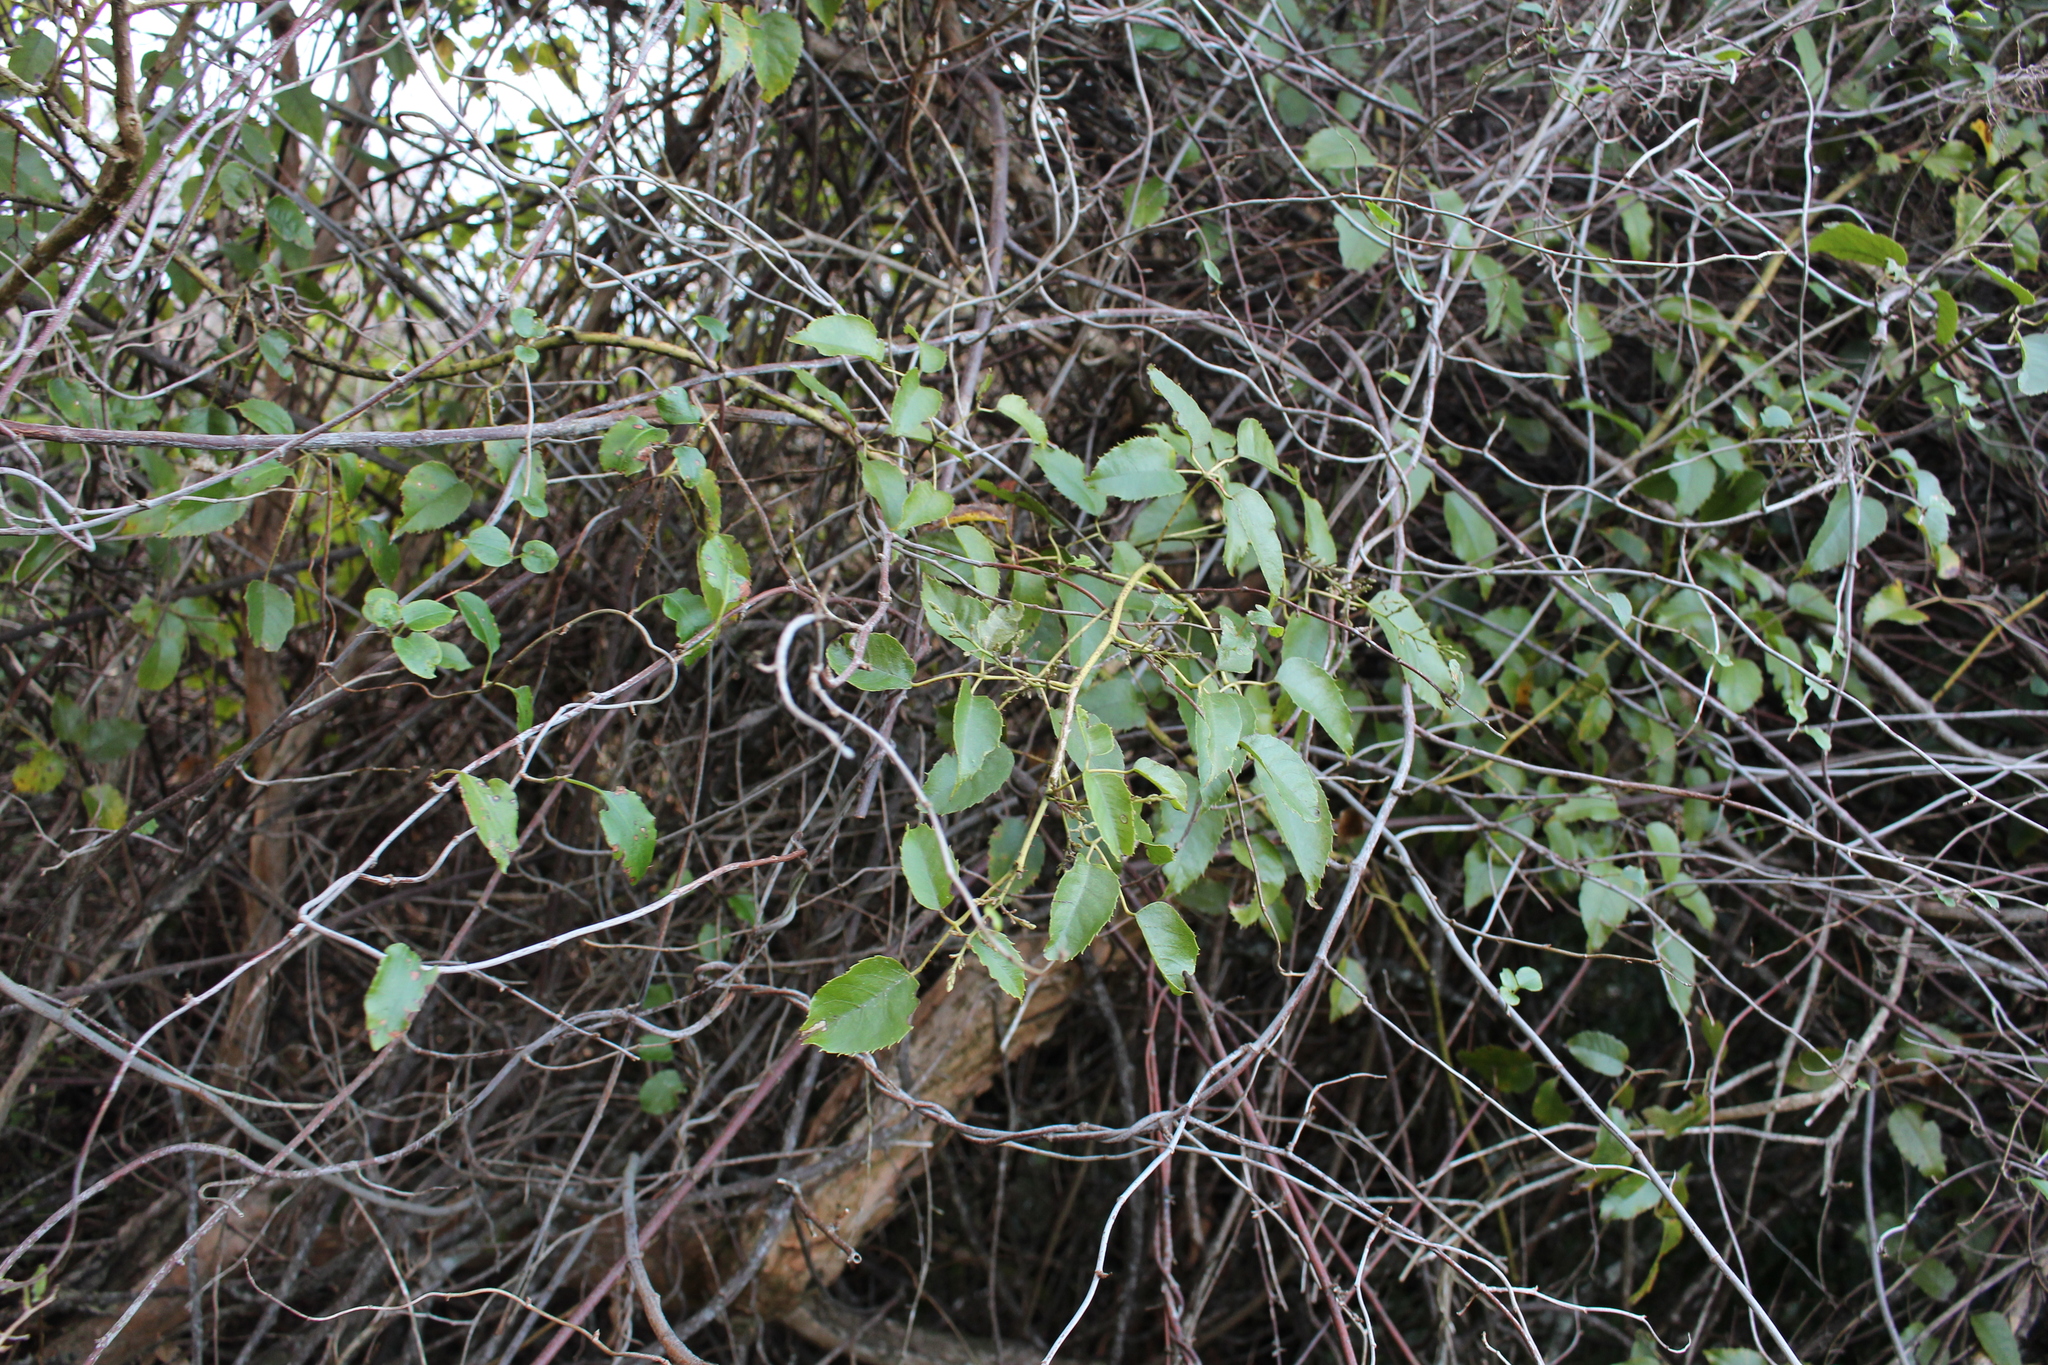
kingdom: Plantae
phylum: Tracheophyta
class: Magnoliopsida
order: Rosales
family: Rosaceae
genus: Rubus
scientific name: Rubus cissoides
